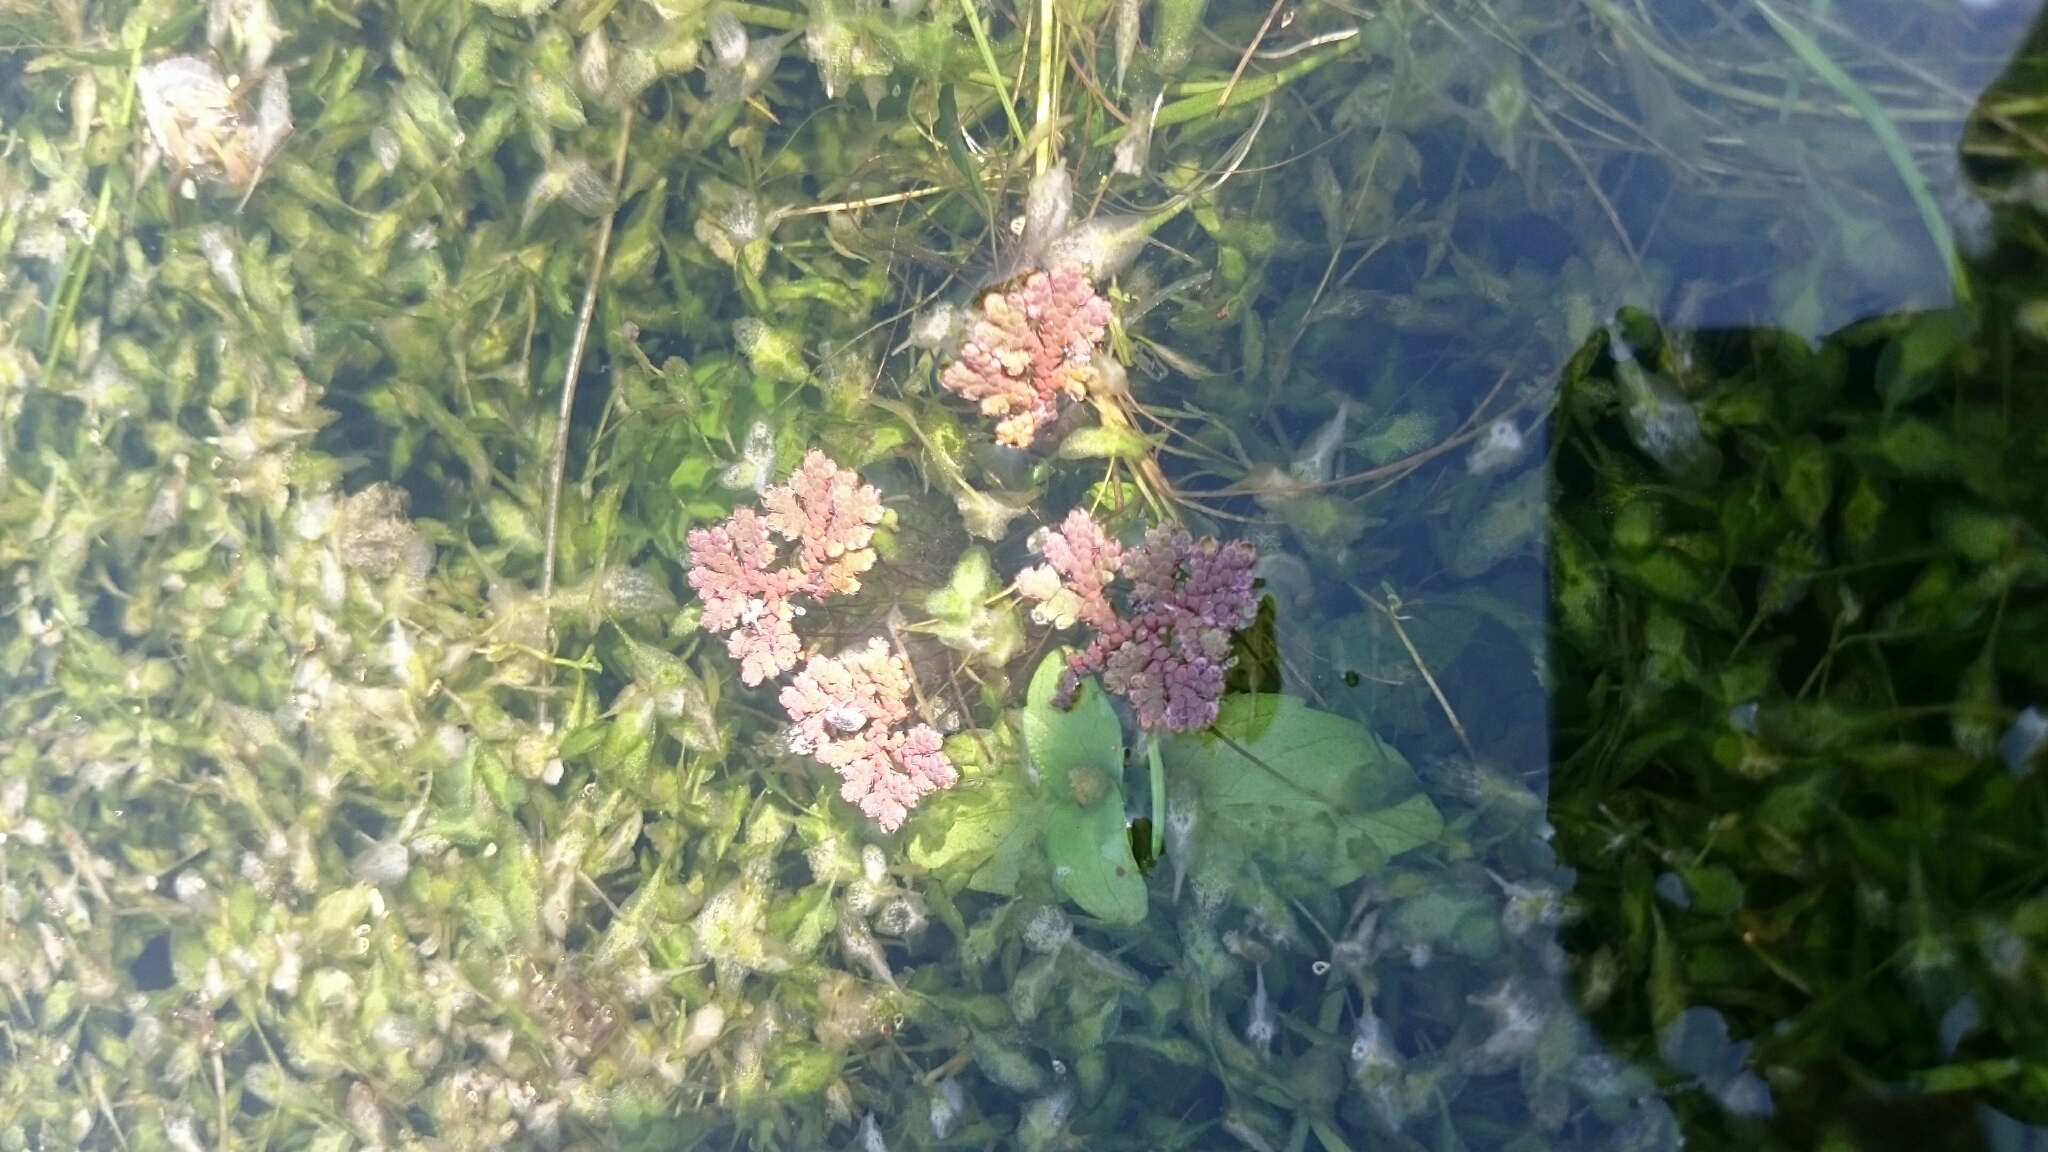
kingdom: Plantae
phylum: Tracheophyta
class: Polypodiopsida
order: Salviniales
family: Salviniaceae
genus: Azolla
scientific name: Azolla filiculoides
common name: Water fern
